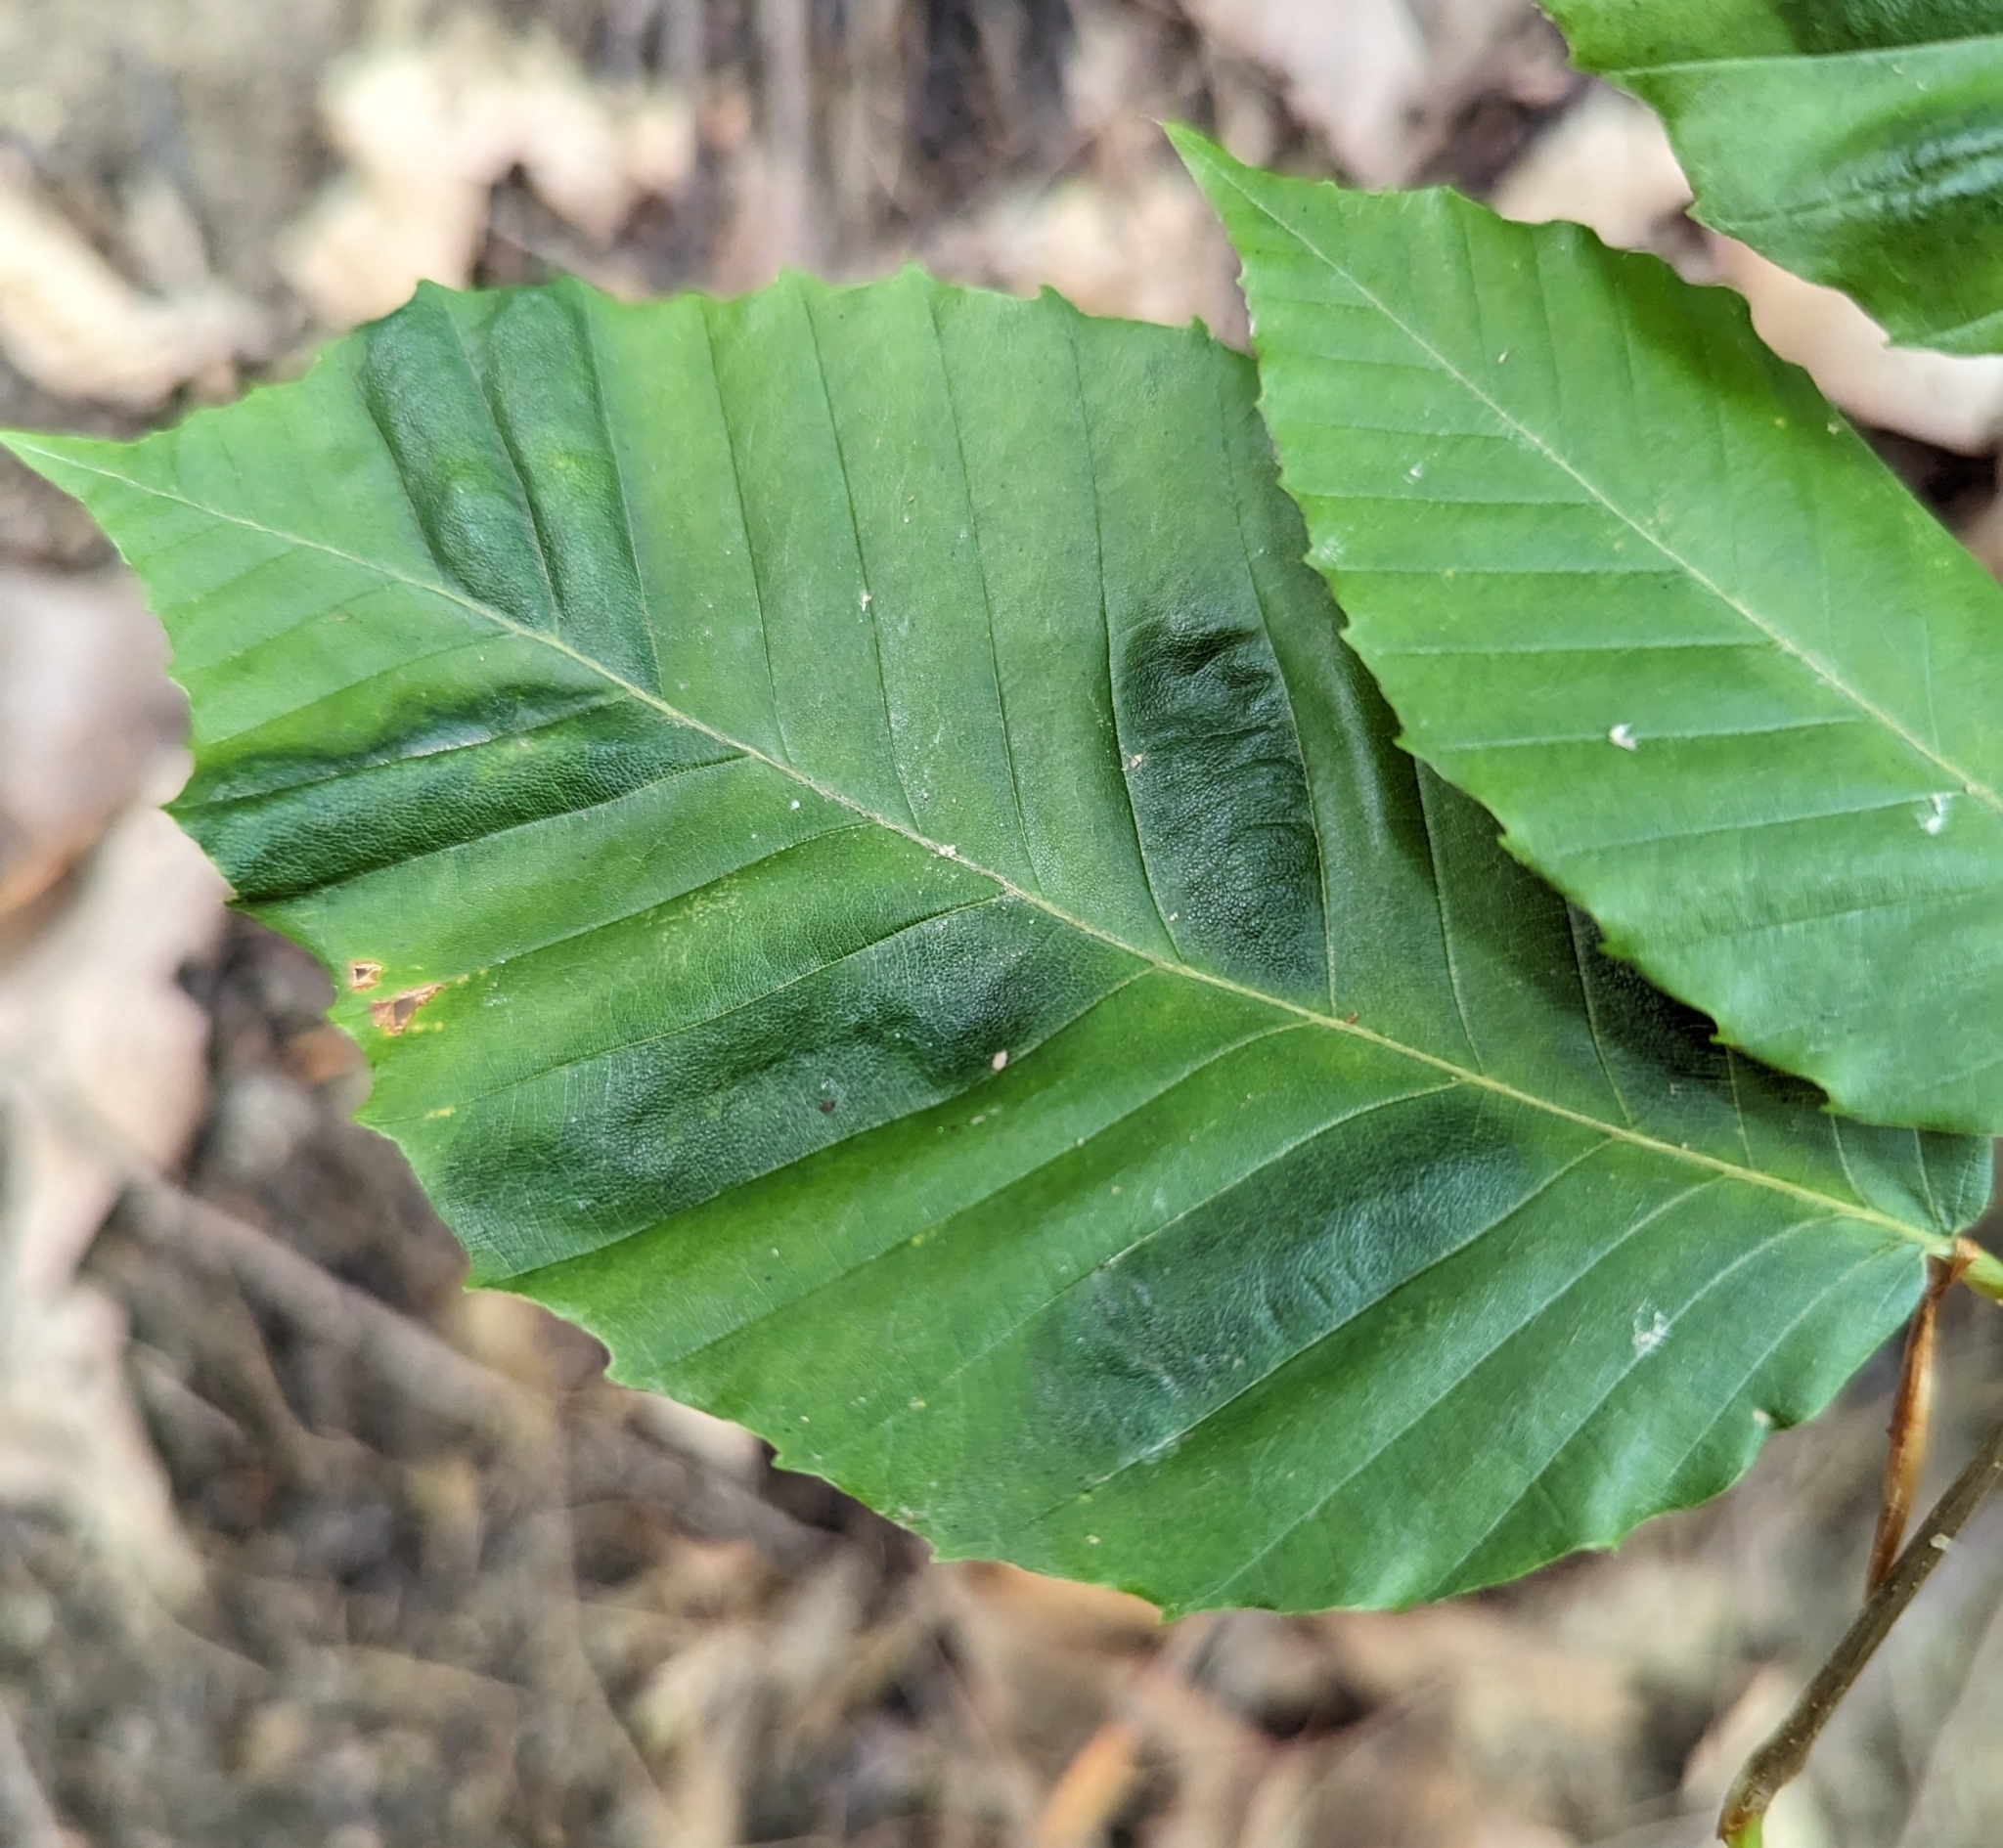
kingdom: Animalia
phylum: Nematoda
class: Chromadorea
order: Rhabditida
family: Anguinidae
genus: Litylenchus
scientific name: Litylenchus crenatae
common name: Beech leaf disease
